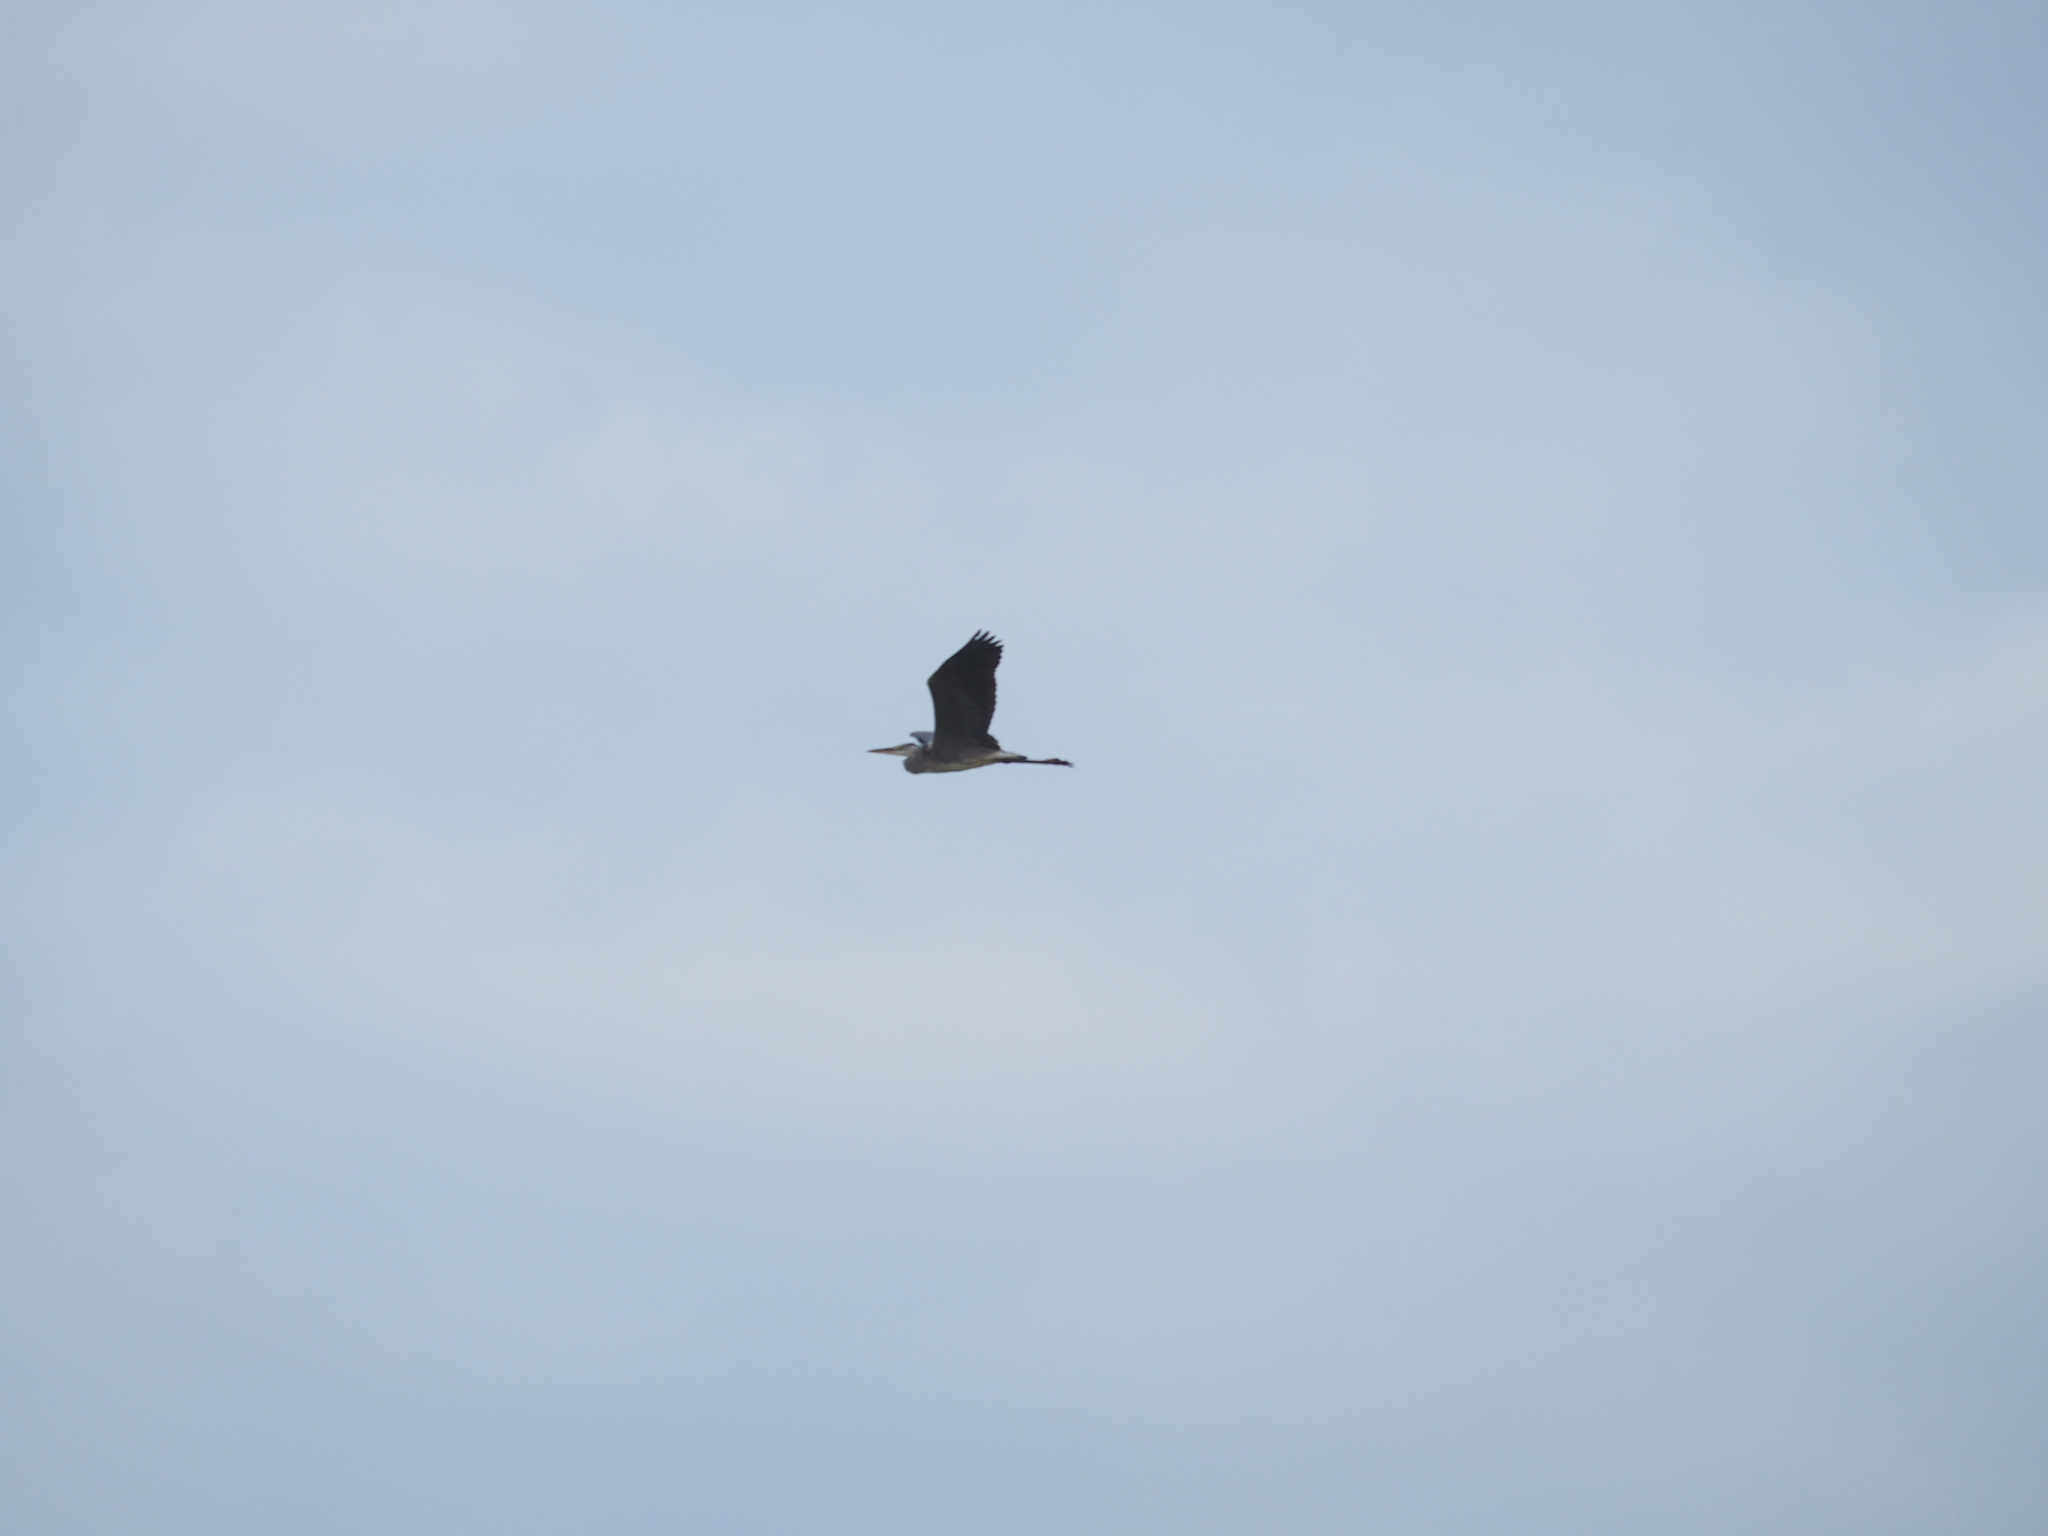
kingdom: Animalia
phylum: Chordata
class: Aves
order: Pelecaniformes
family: Ardeidae
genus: Ardea
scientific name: Ardea cinerea
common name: Grey heron
